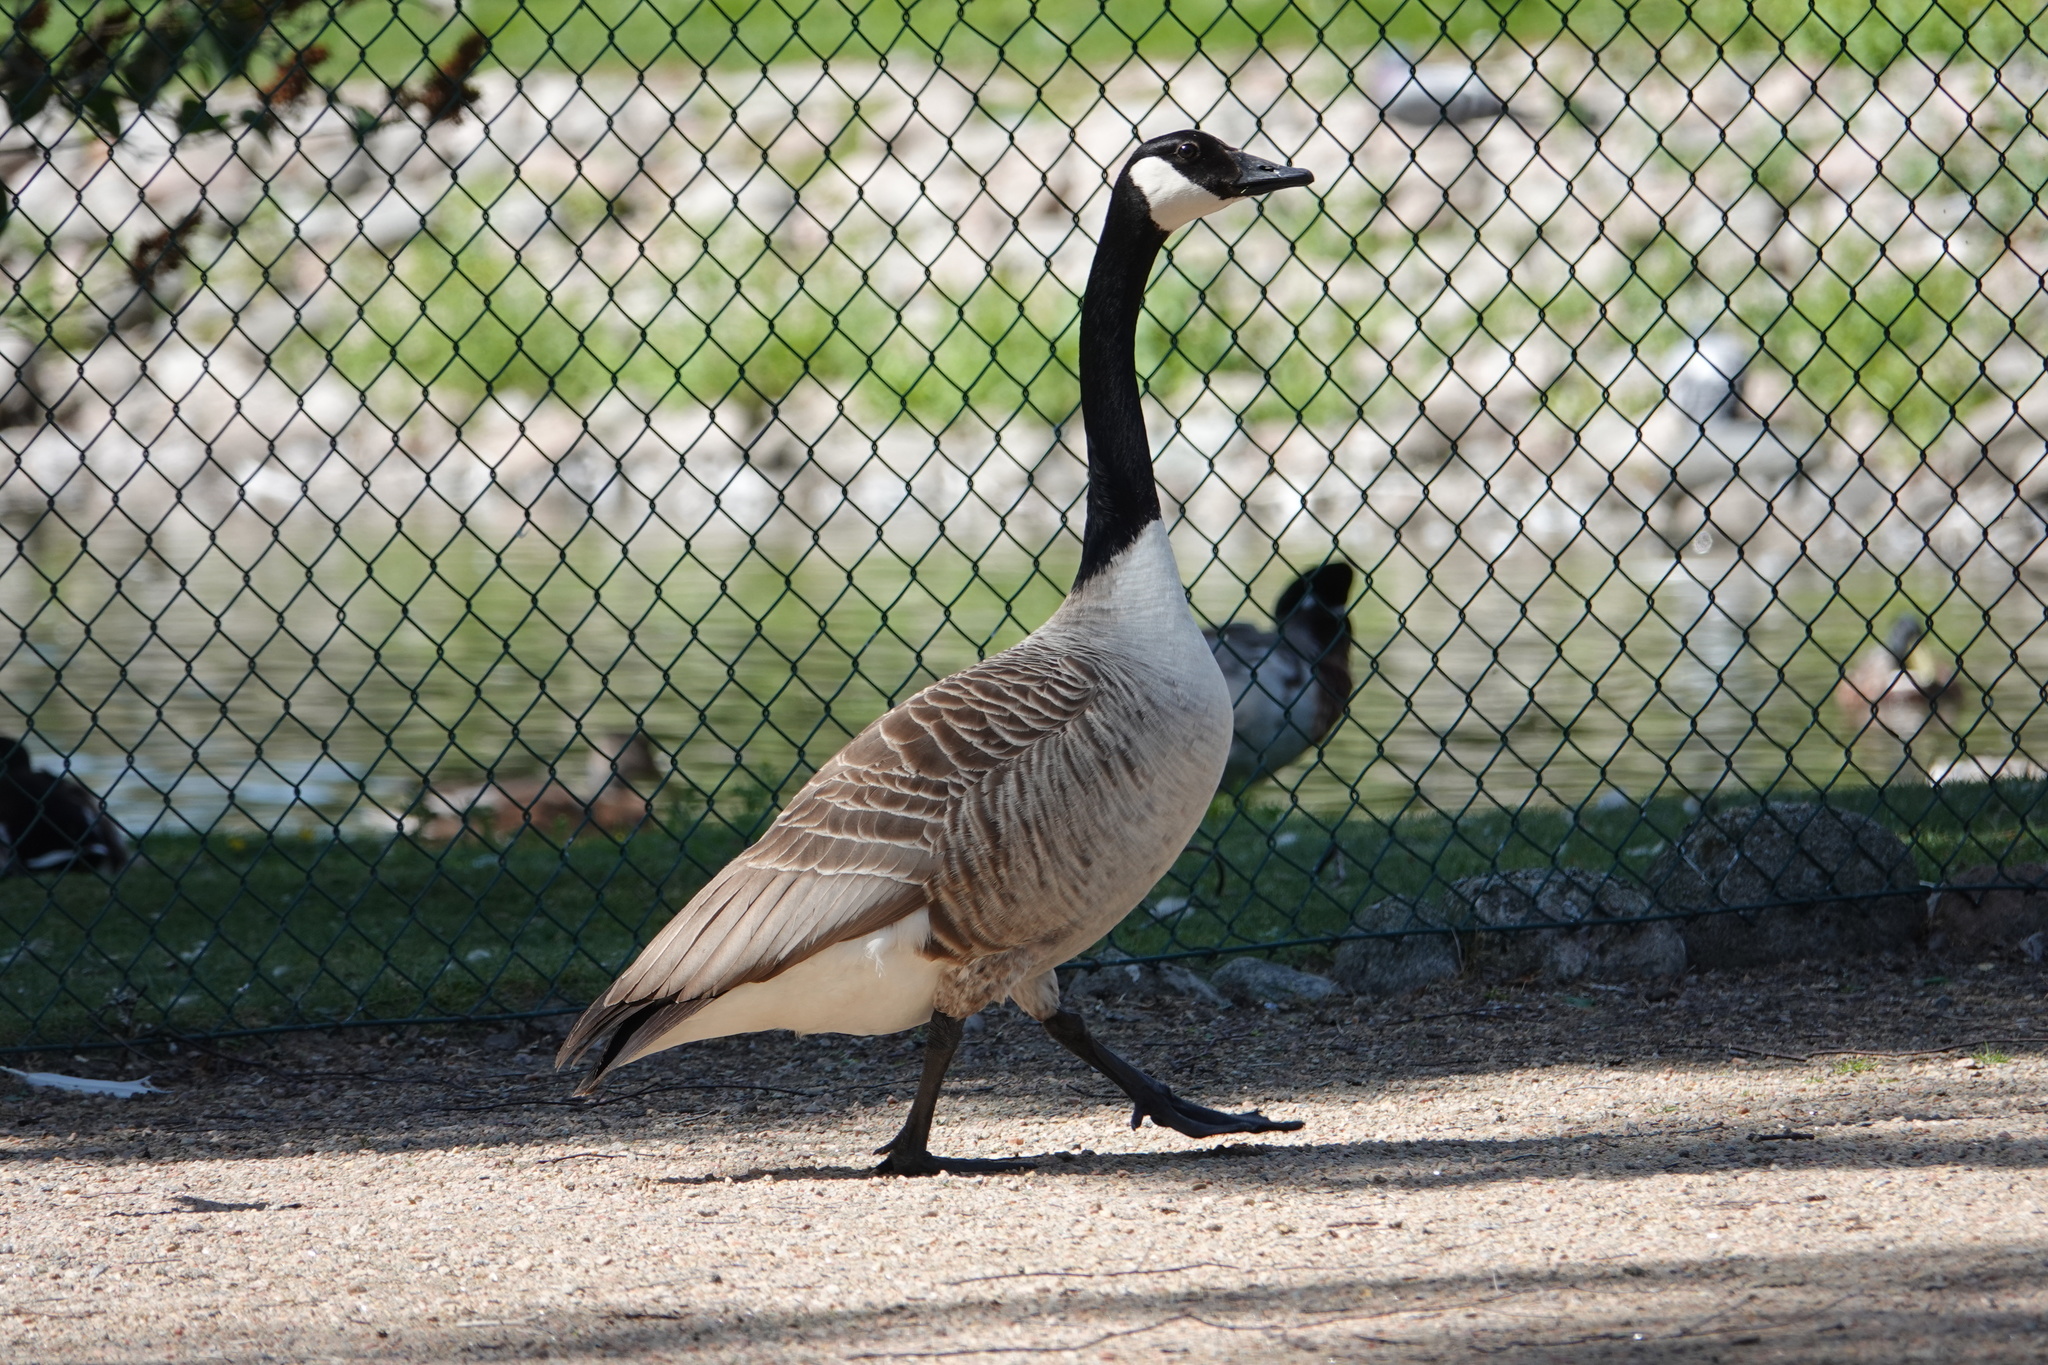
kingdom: Animalia
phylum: Chordata
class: Aves
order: Anseriformes
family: Anatidae
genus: Branta
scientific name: Branta canadensis
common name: Canada goose
